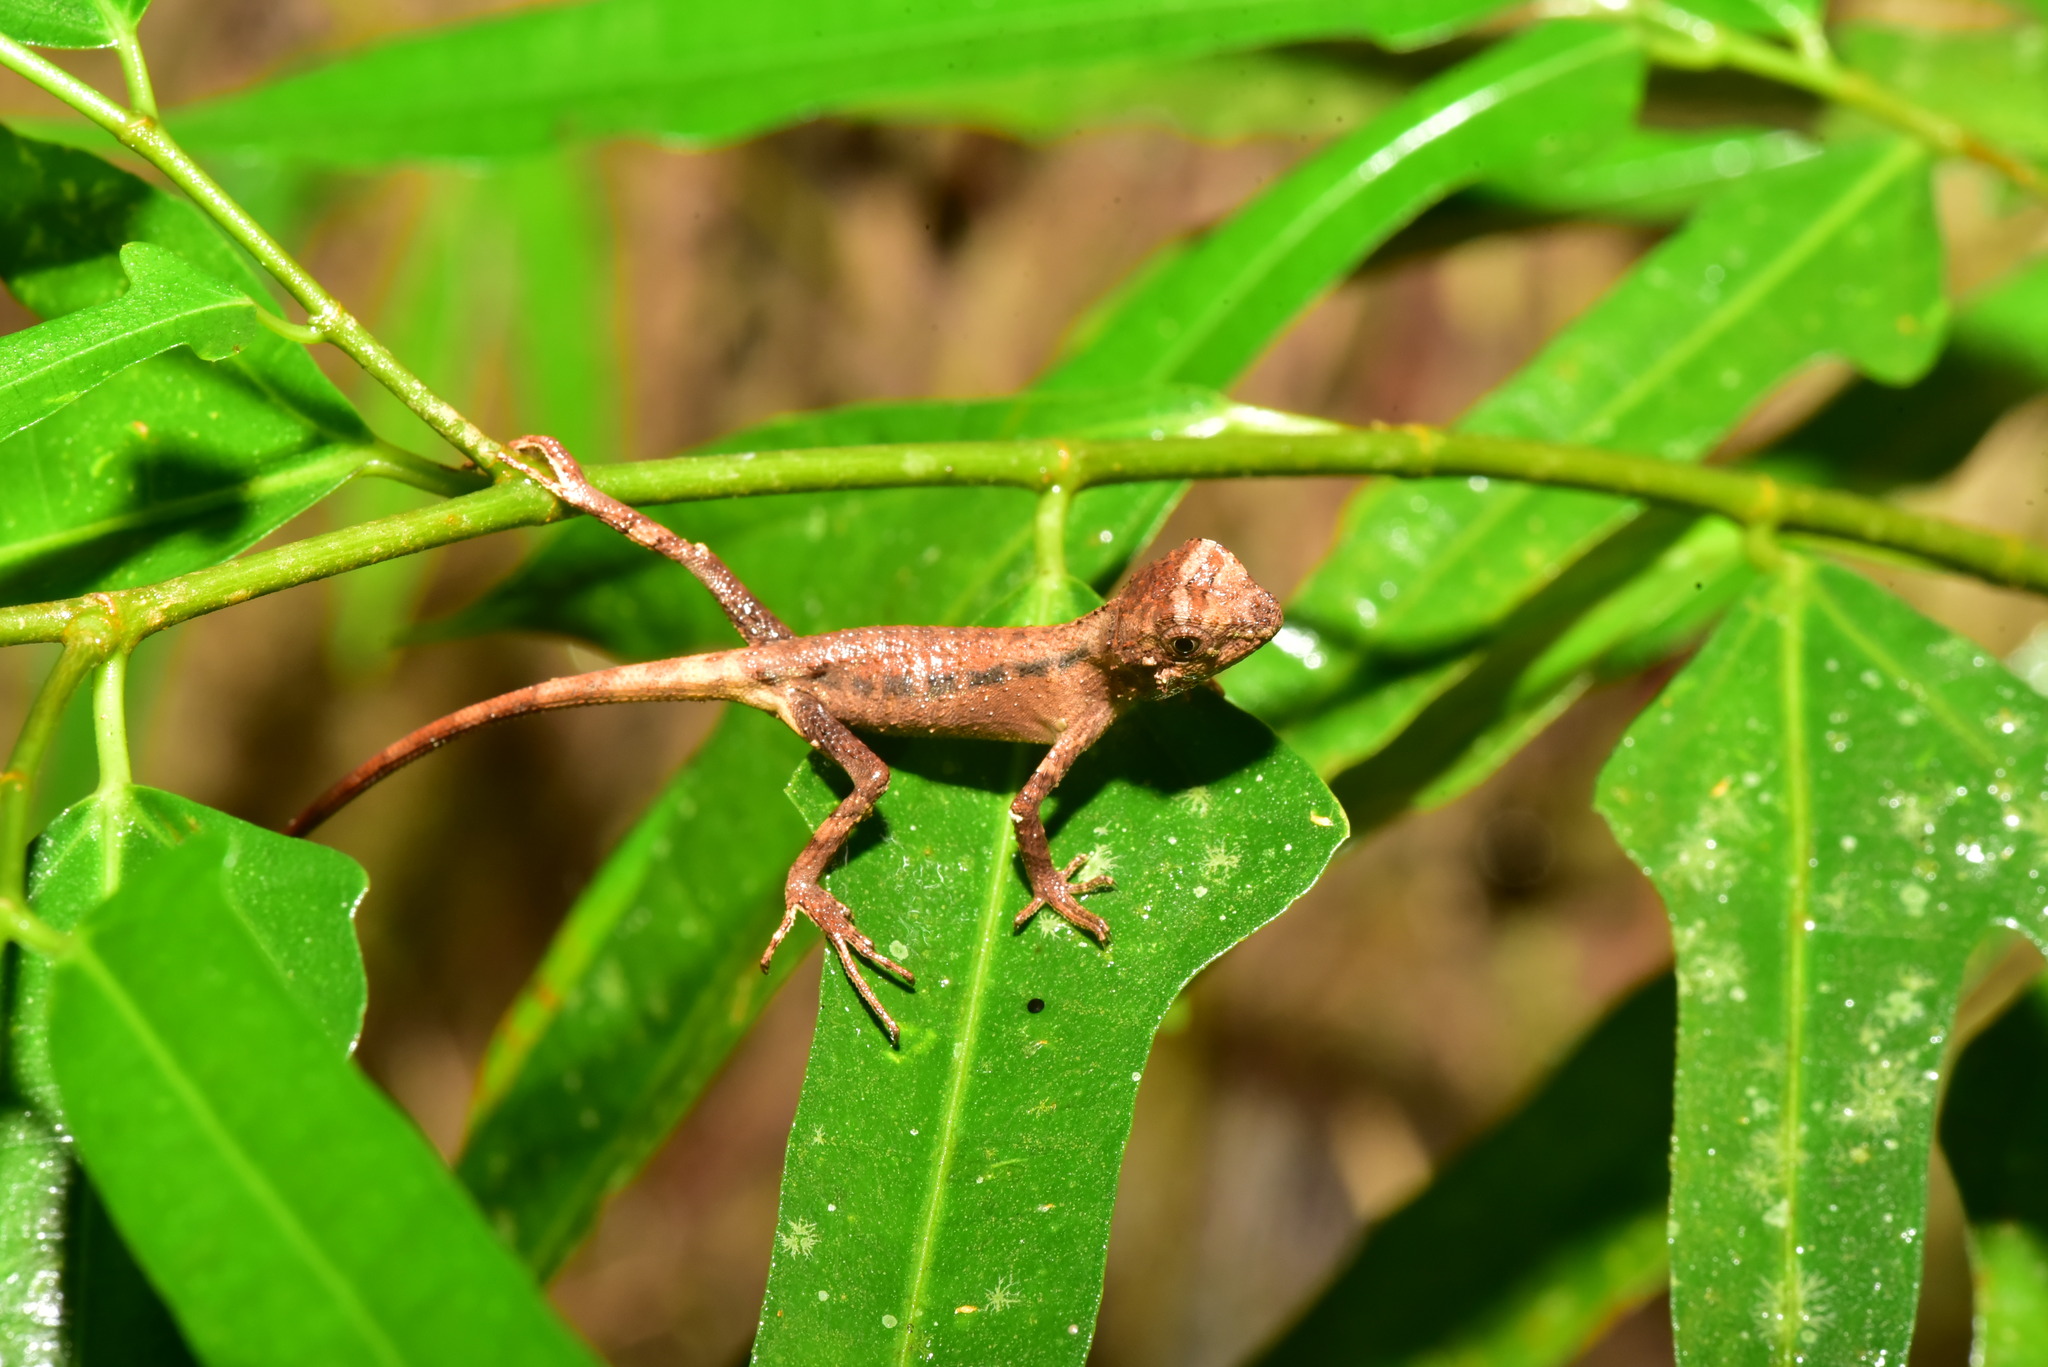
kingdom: Animalia
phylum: Chordata
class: Squamata
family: Agamidae
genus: Diploderma
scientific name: Diploderma swinhonis
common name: Taiwan japalure
